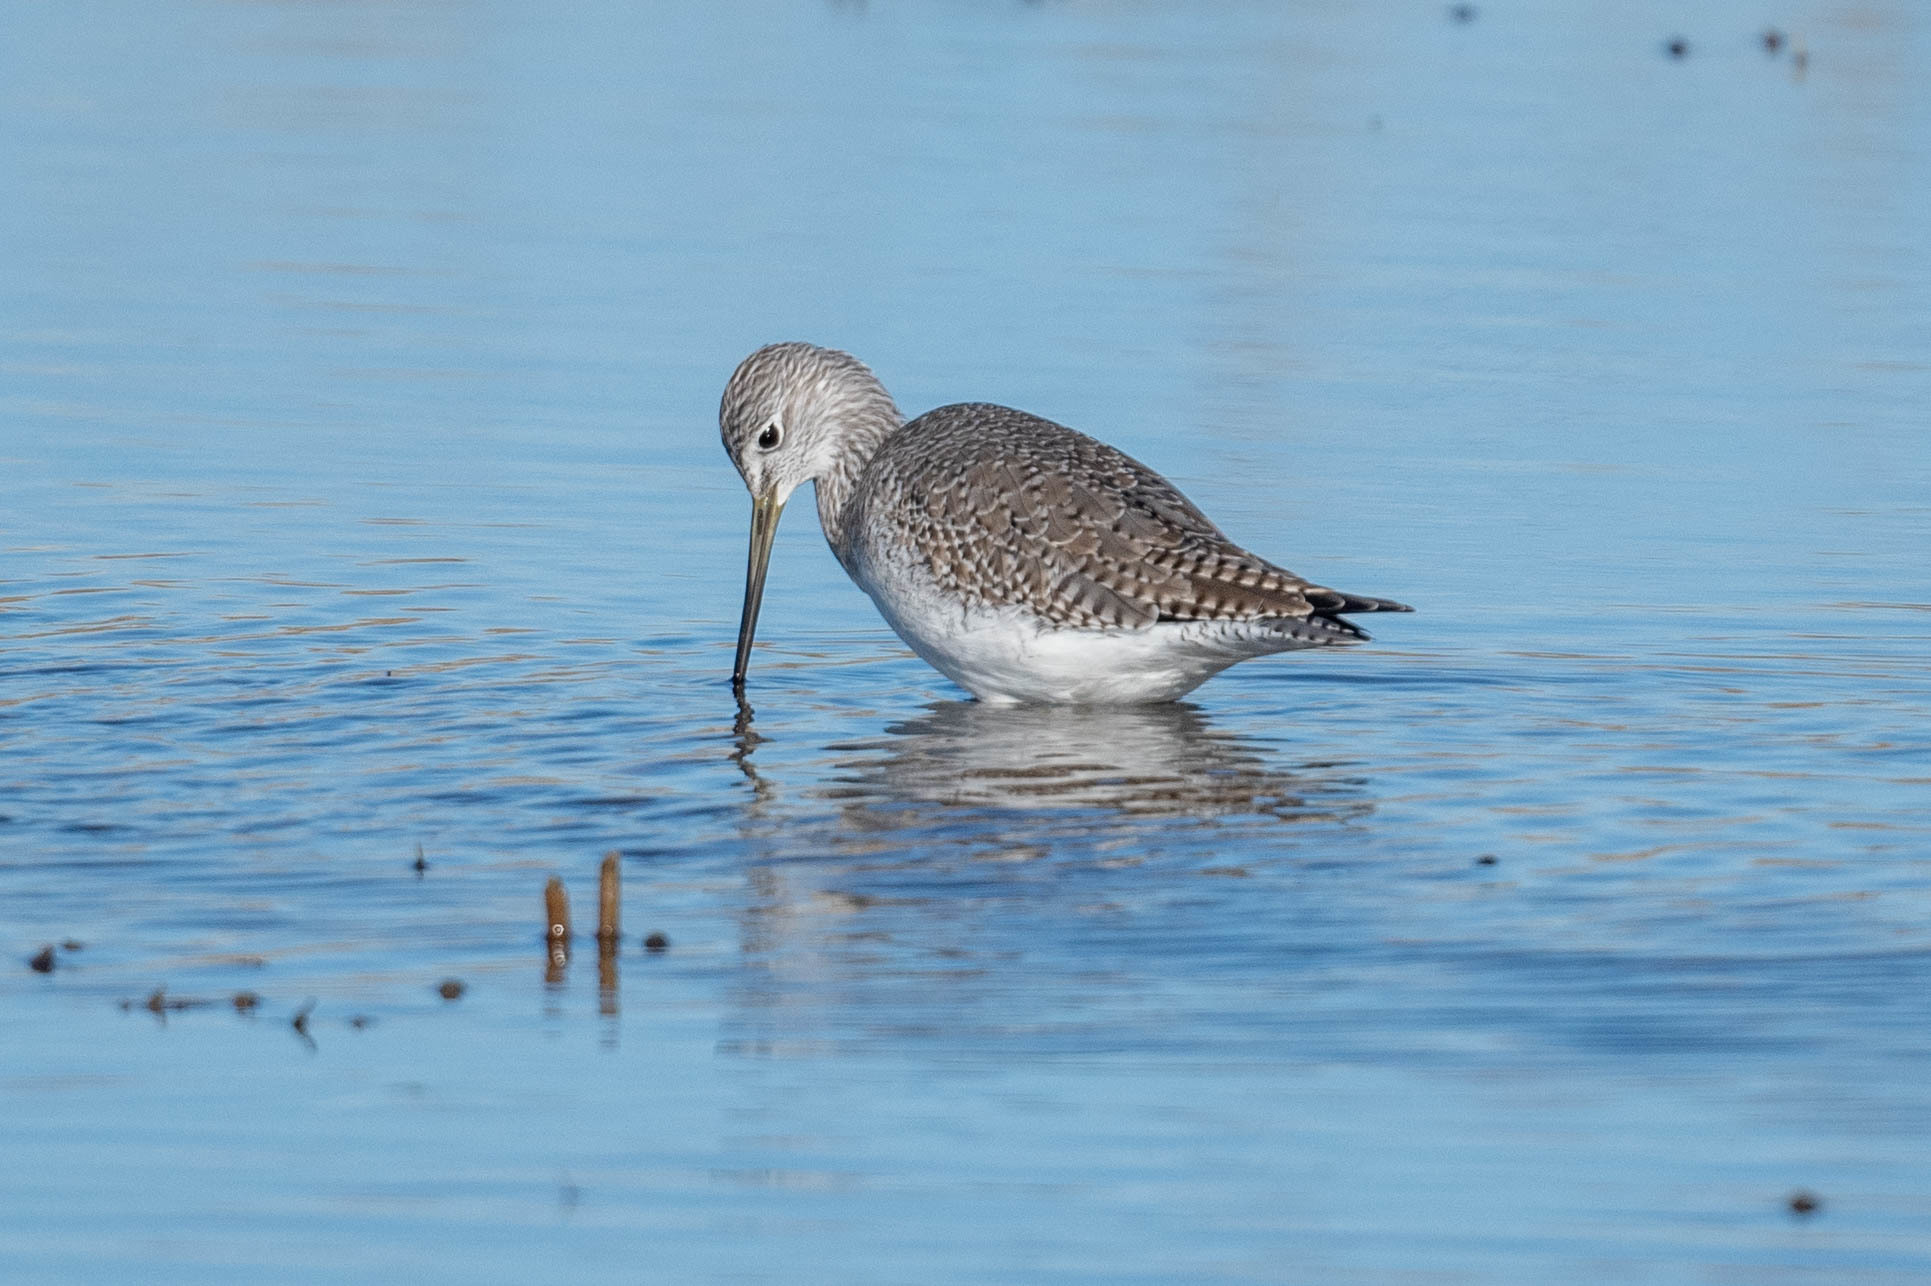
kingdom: Animalia
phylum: Chordata
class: Aves
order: Charadriiformes
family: Scolopacidae
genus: Tringa
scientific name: Tringa melanoleuca
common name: Greater yellowlegs
